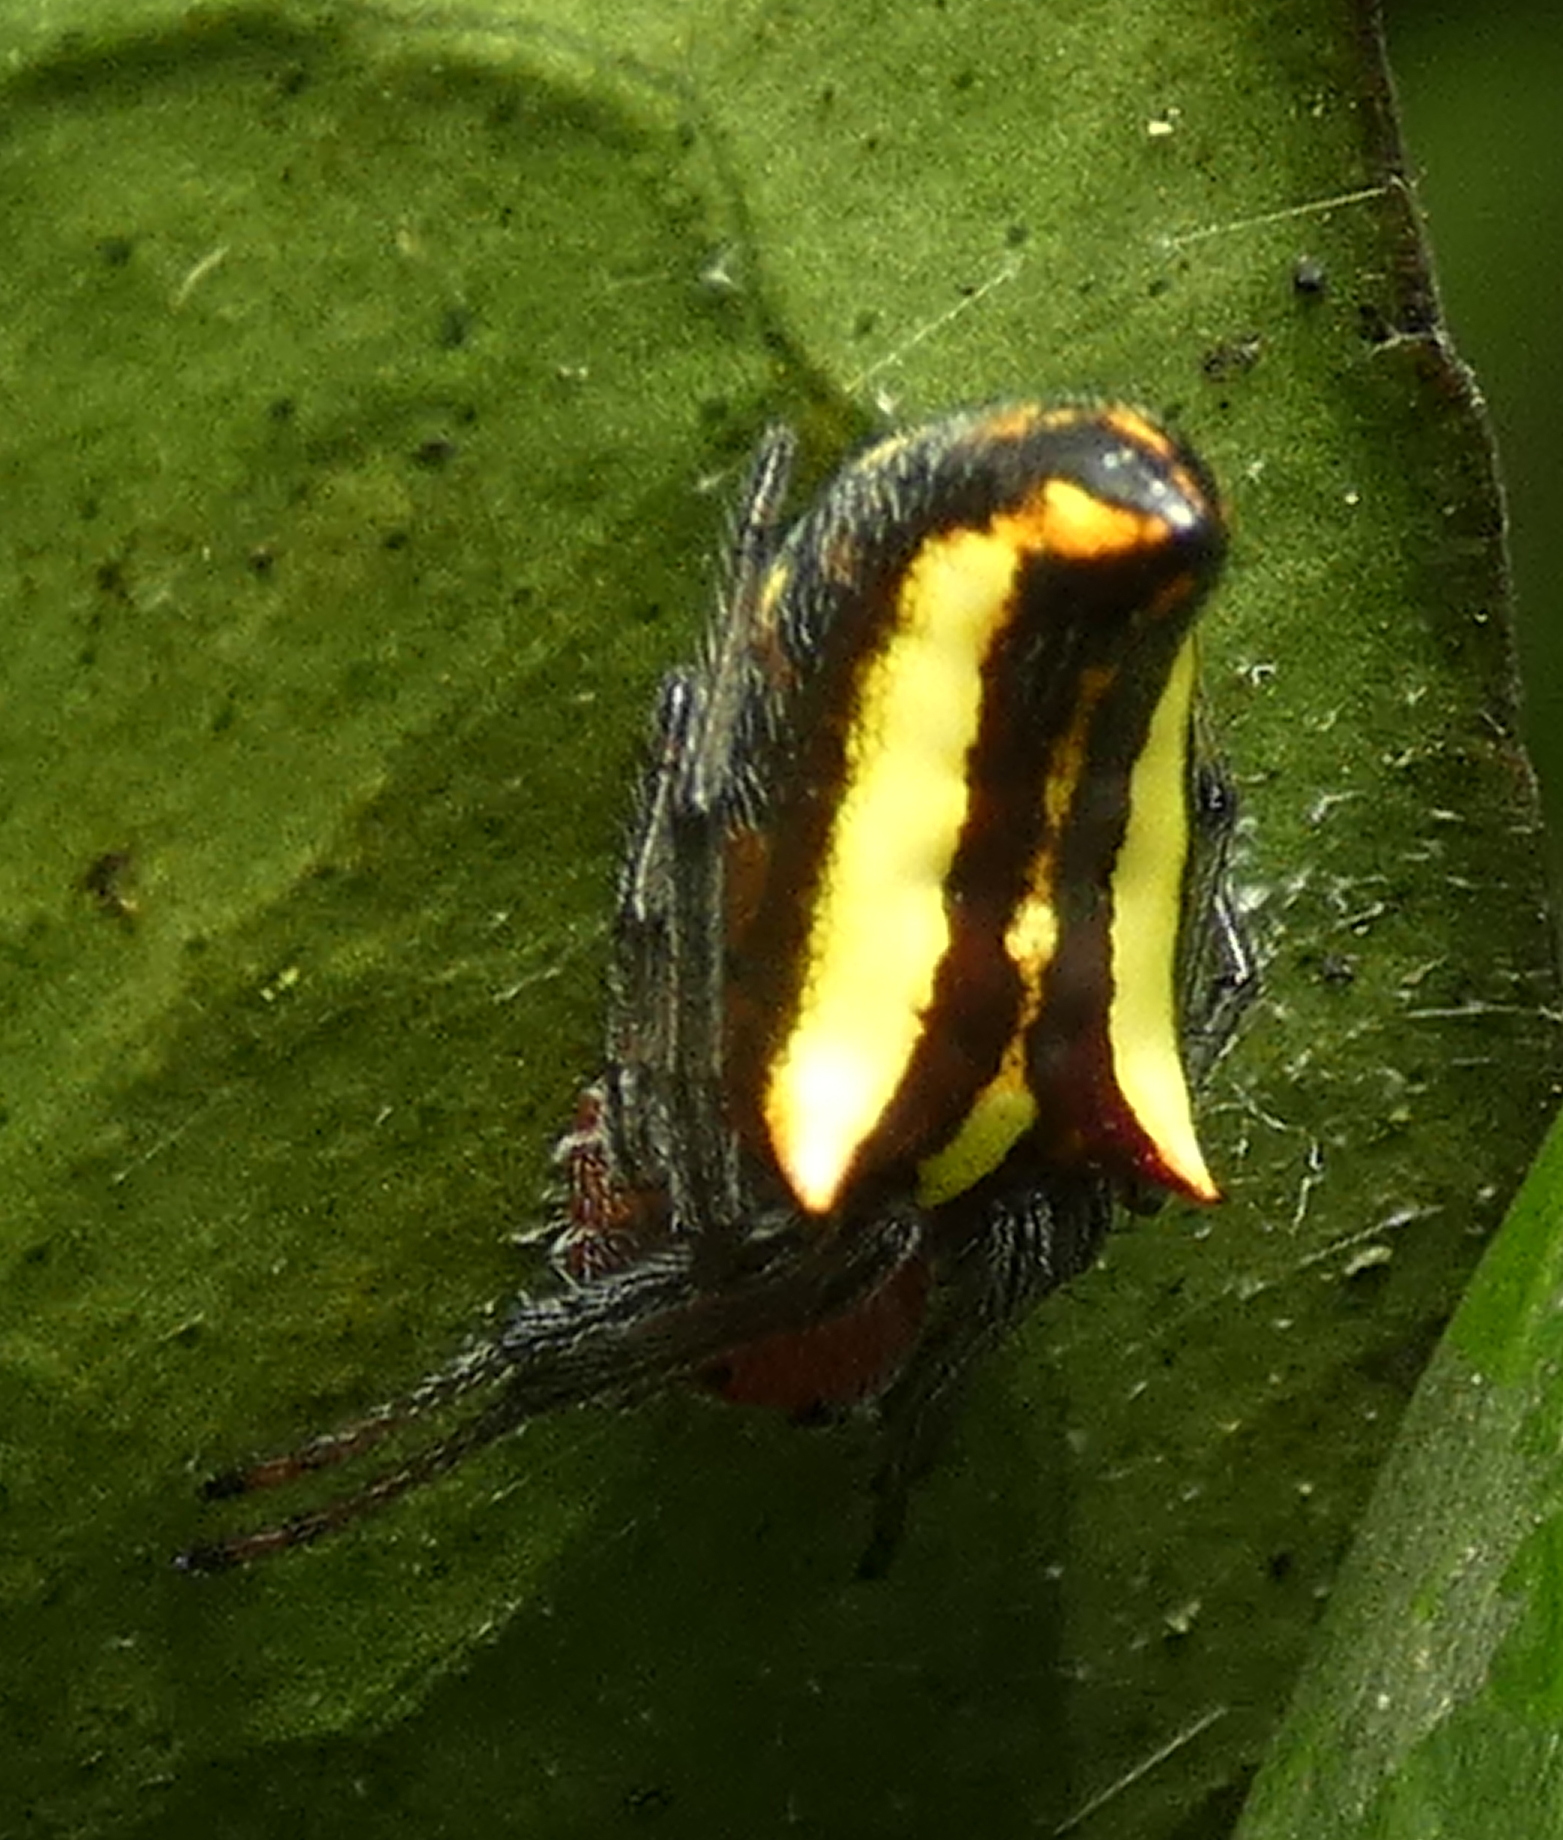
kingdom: Animalia
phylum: Arthropoda
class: Arachnida
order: Araneae
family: Araneidae
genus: Alpaida
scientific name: Alpaida bicornuta
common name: Orb weavers
